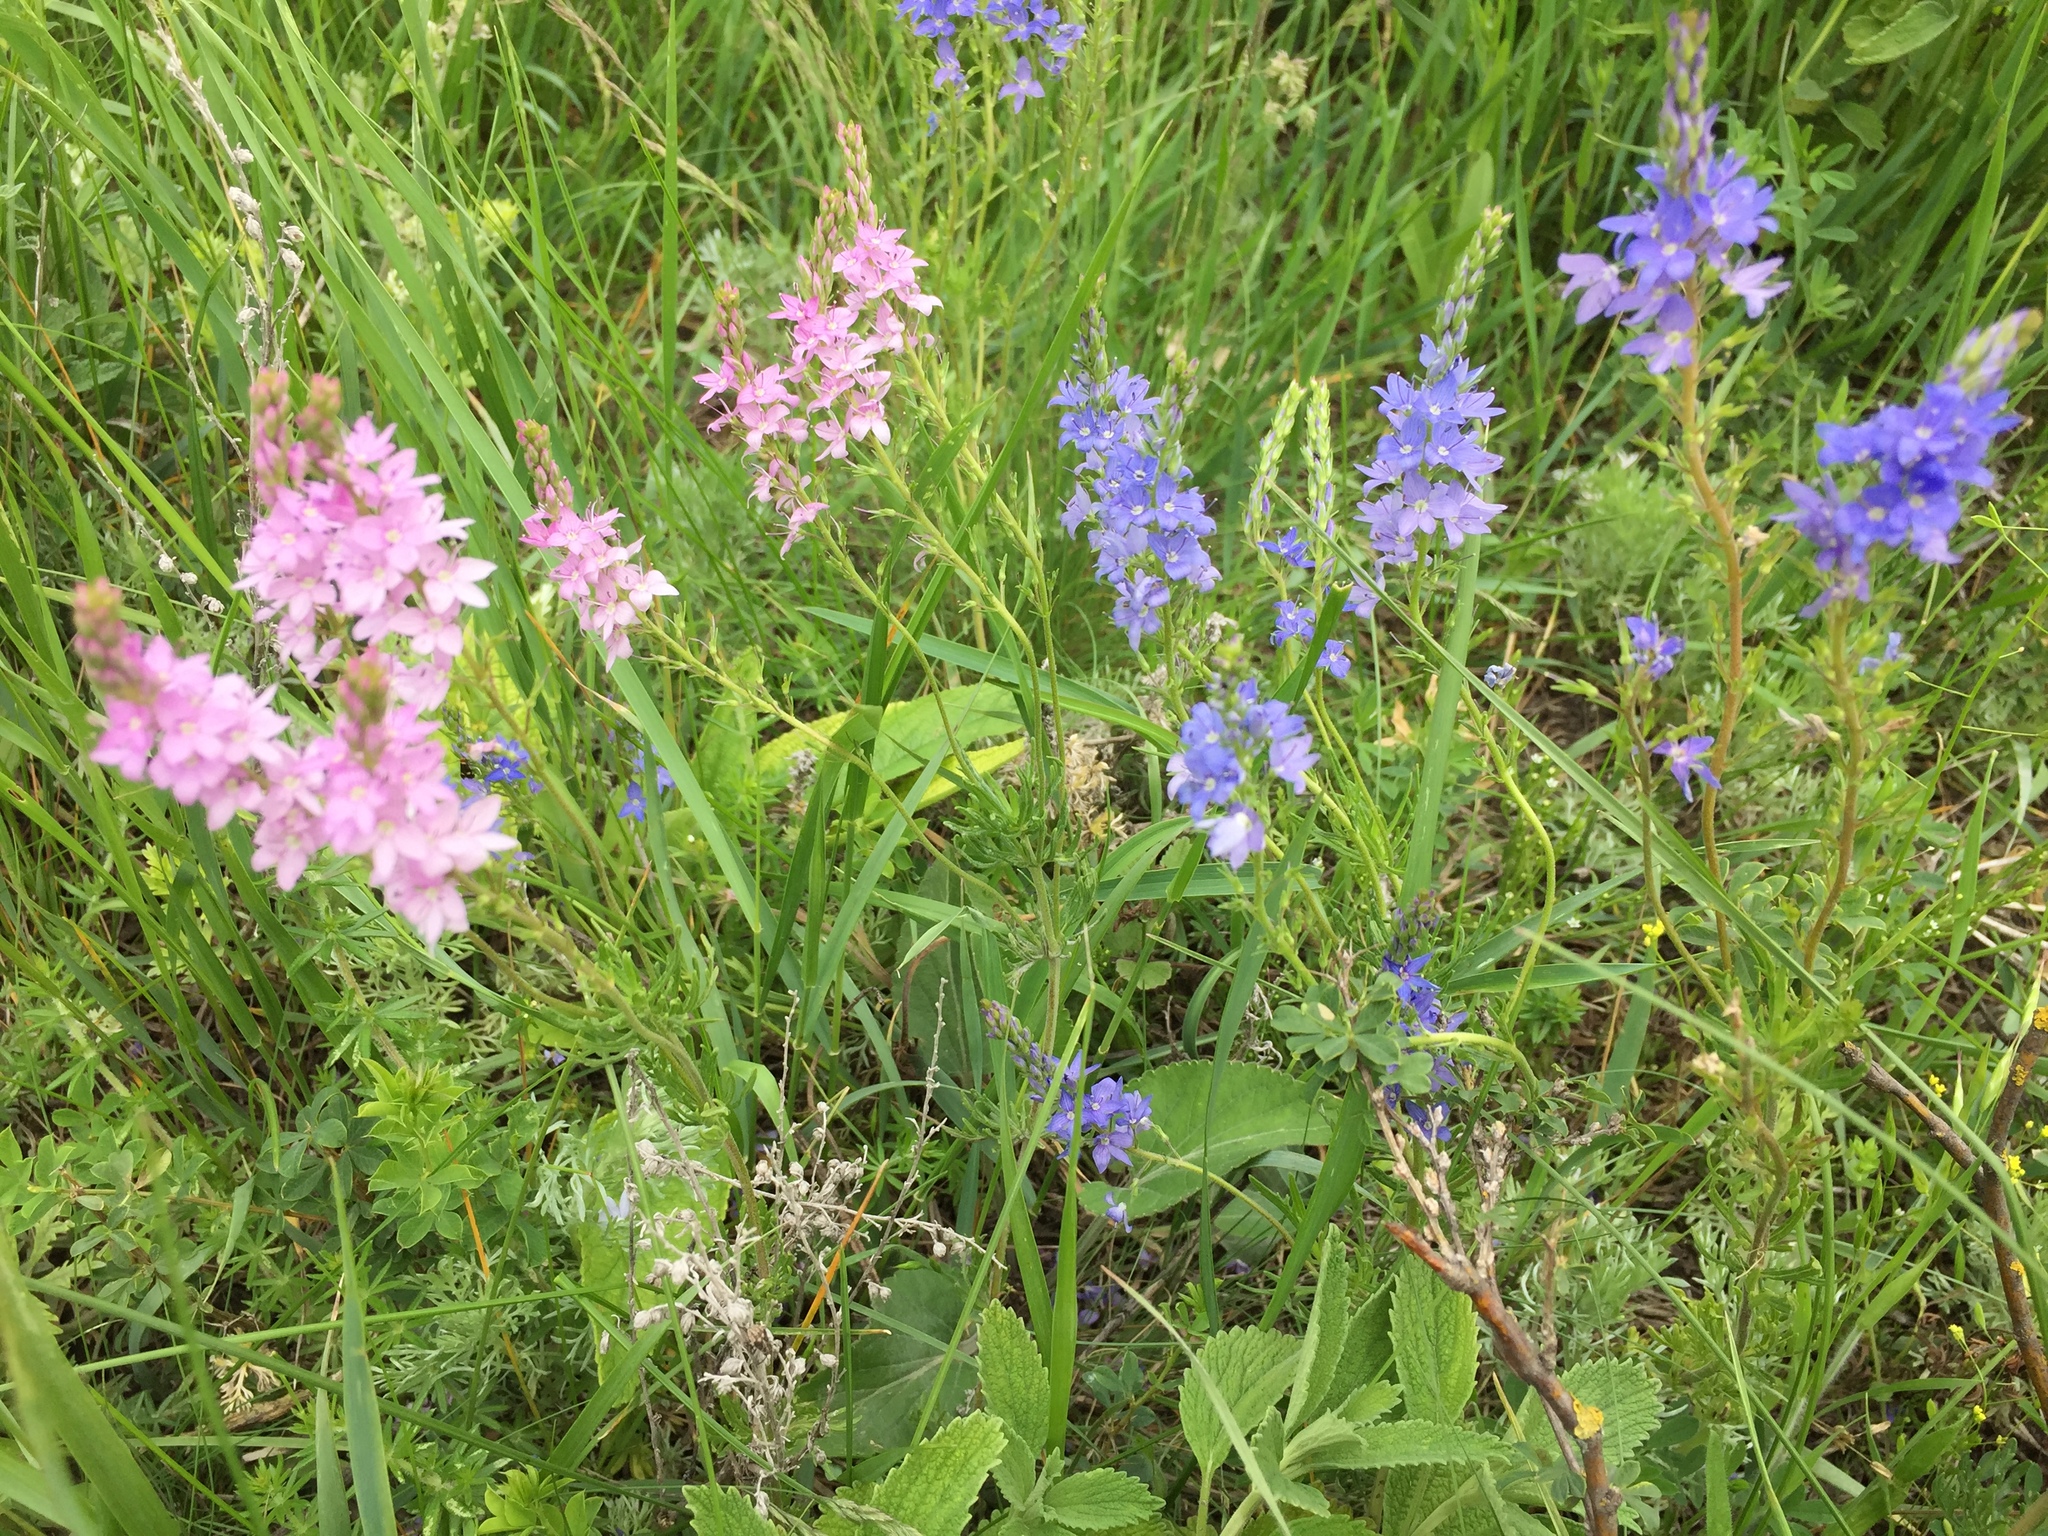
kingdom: Plantae
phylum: Tracheophyta
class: Magnoliopsida
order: Lamiales
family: Plantaginaceae
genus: Veronica
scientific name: Veronica austriaca
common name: Large speedwell
